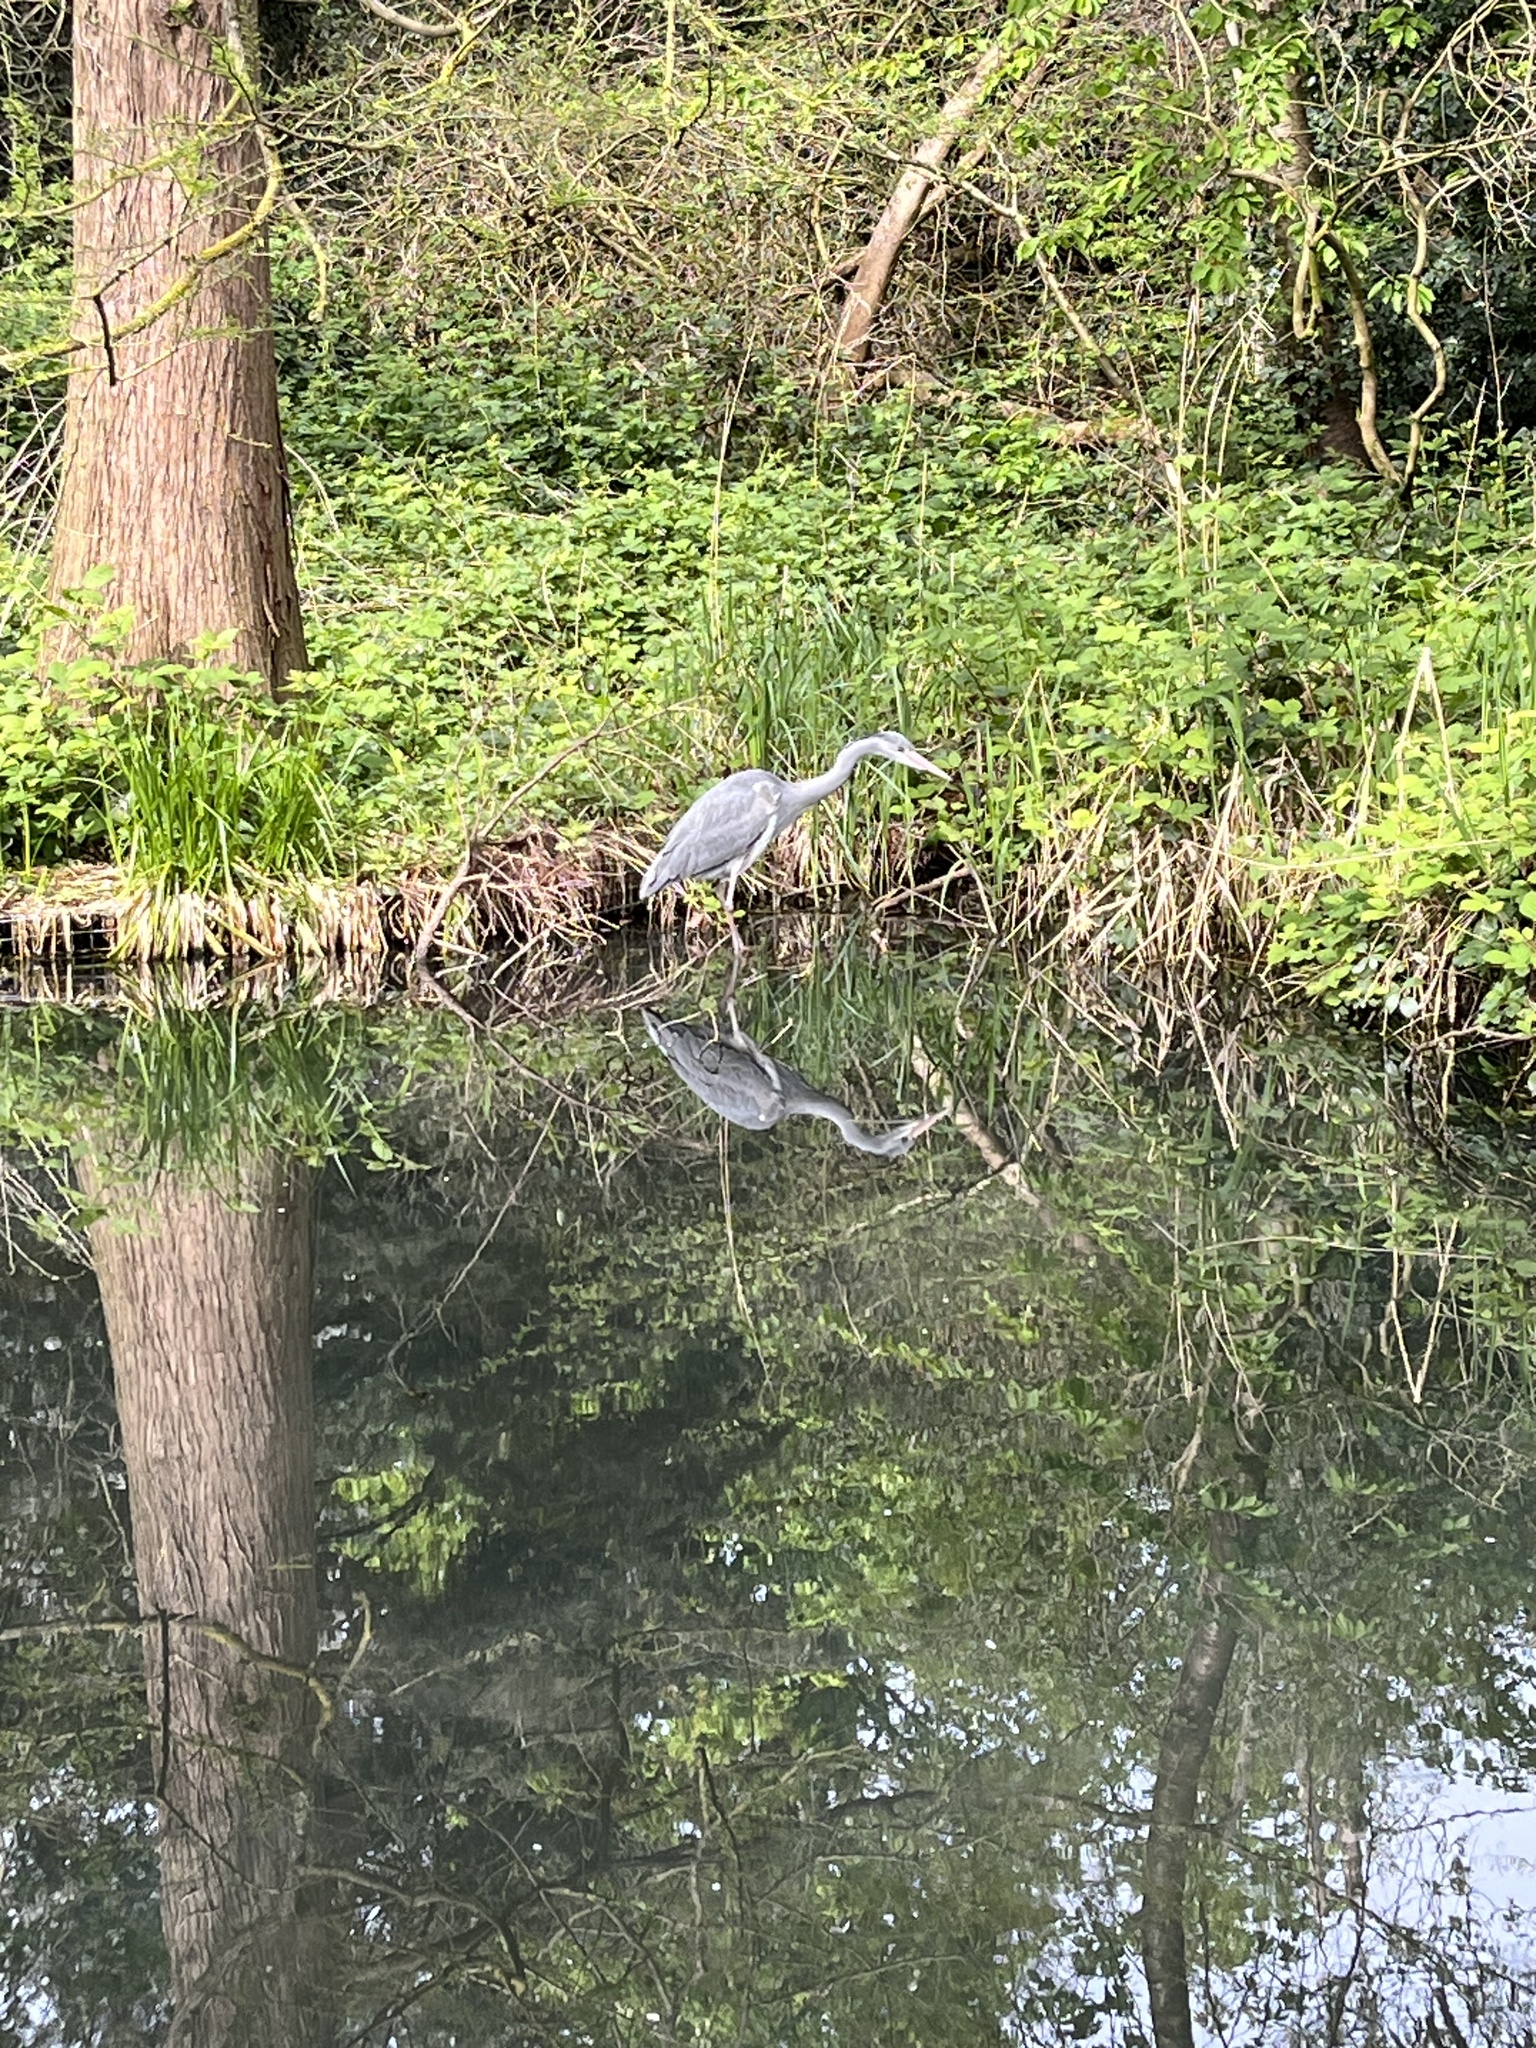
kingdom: Animalia
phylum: Chordata
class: Aves
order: Pelecaniformes
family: Ardeidae
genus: Ardea
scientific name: Ardea cinerea
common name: Grey heron
